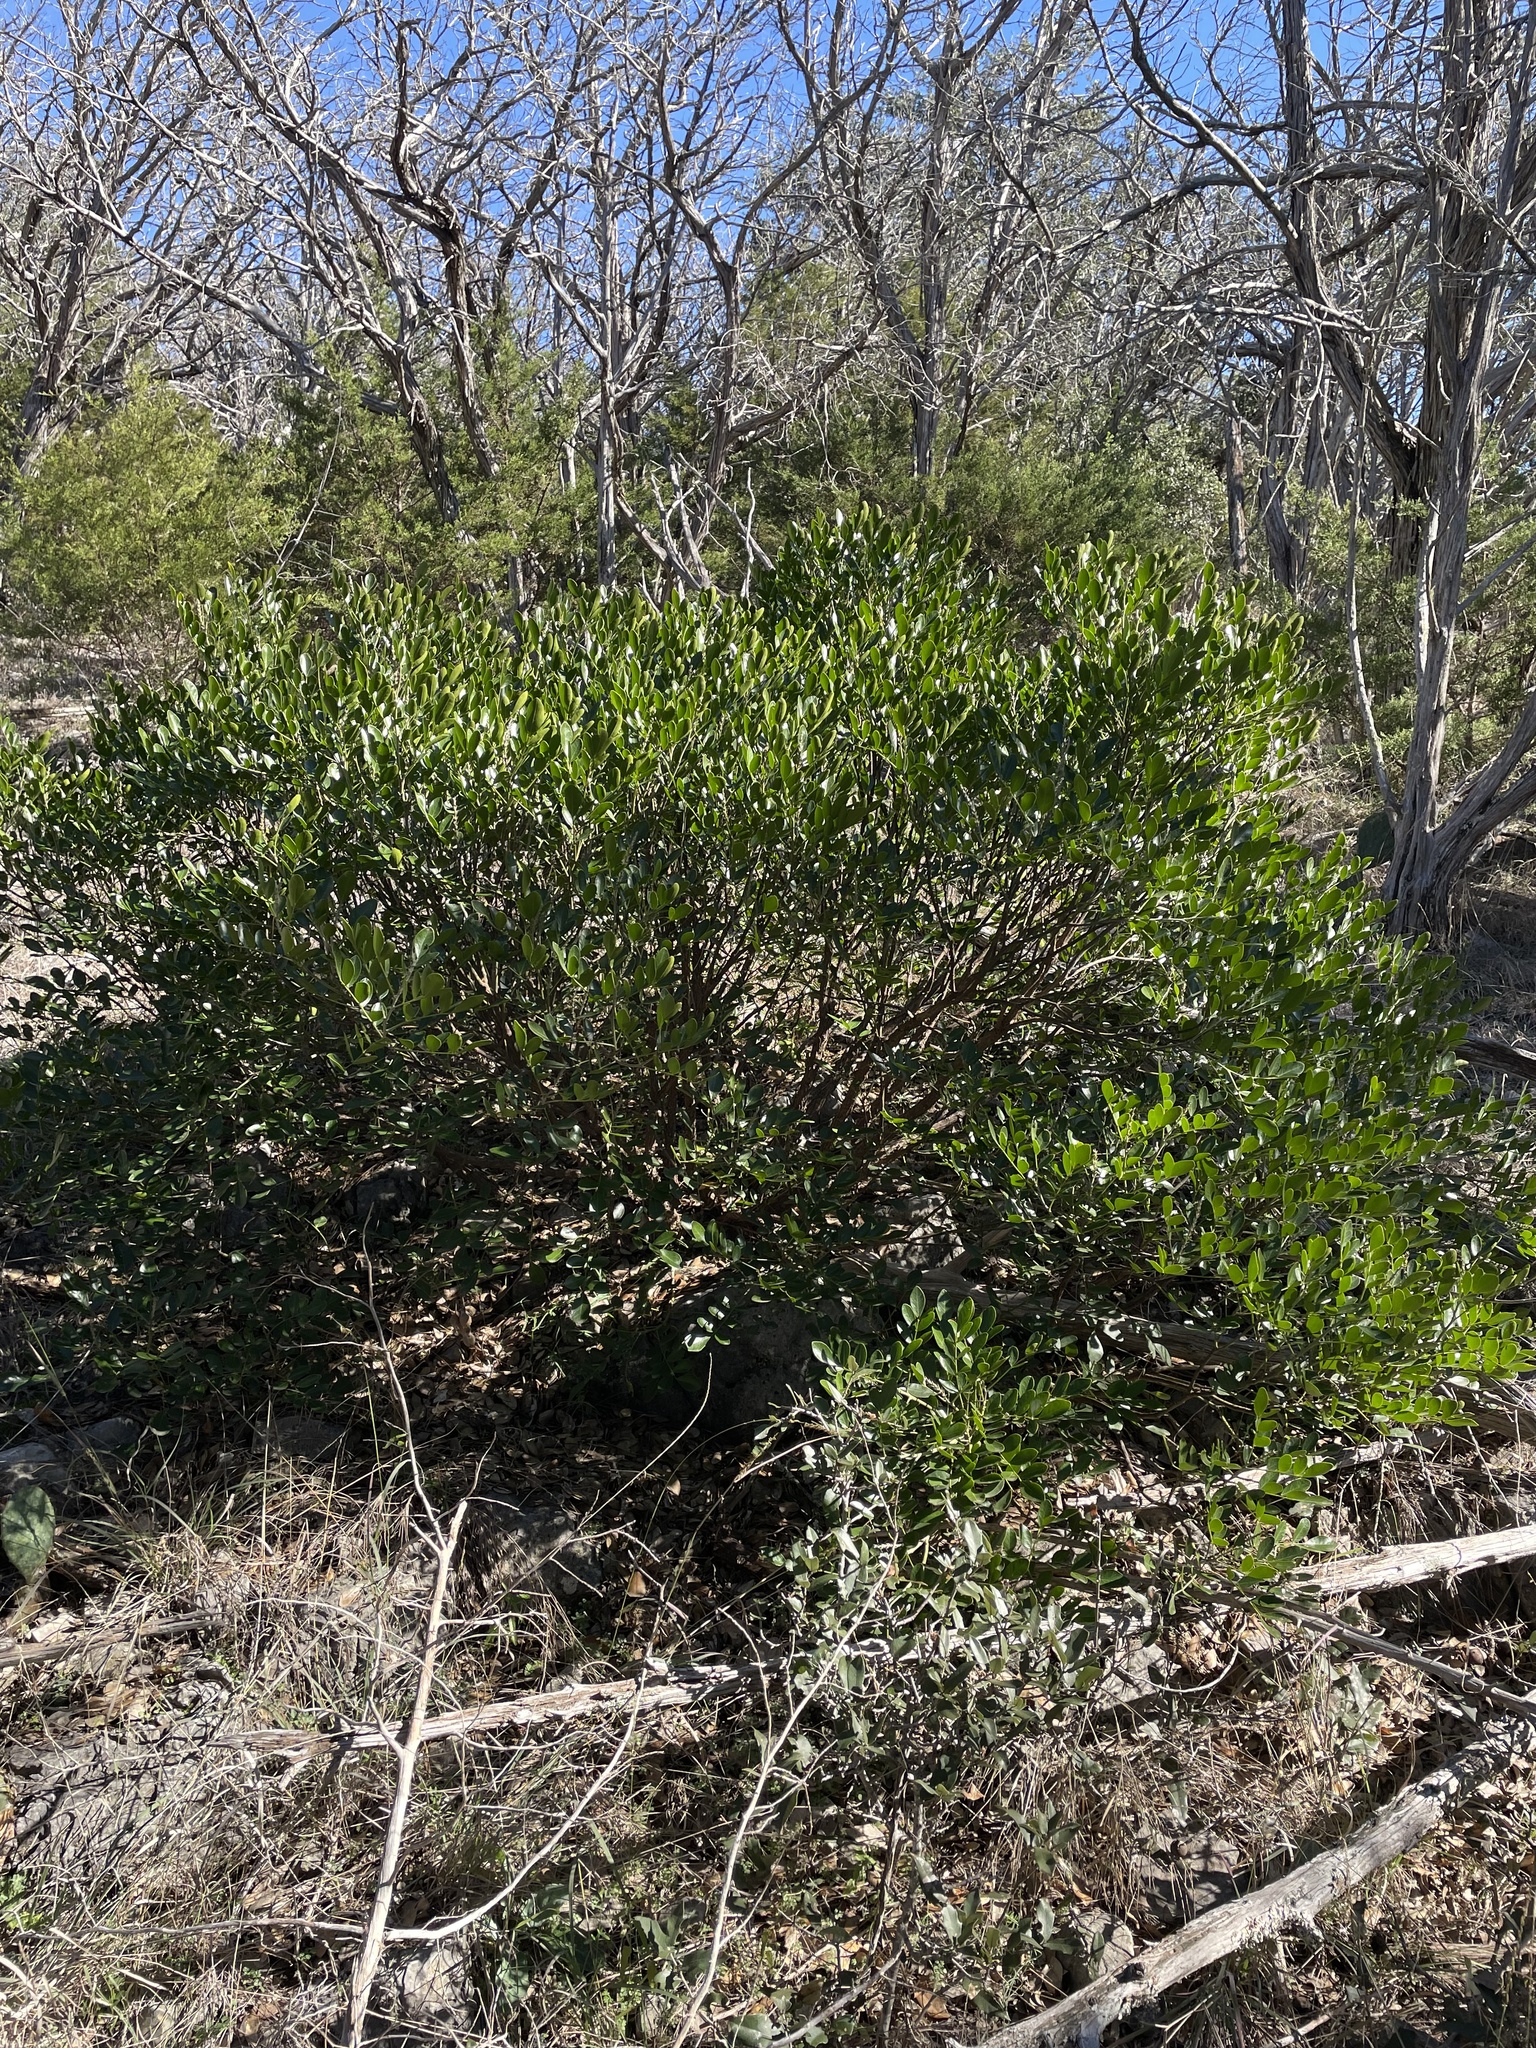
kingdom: Plantae
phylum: Tracheophyta
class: Magnoliopsida
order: Fabales
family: Fabaceae
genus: Dermatophyllum
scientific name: Dermatophyllum secundiflorum
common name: Texas-mountain-laurel
